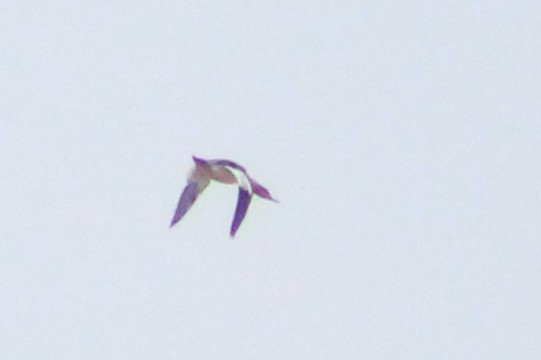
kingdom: Animalia
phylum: Chordata
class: Aves
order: Anseriformes
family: Anatidae
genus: Mergus
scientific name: Mergus merganser
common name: Common merganser
